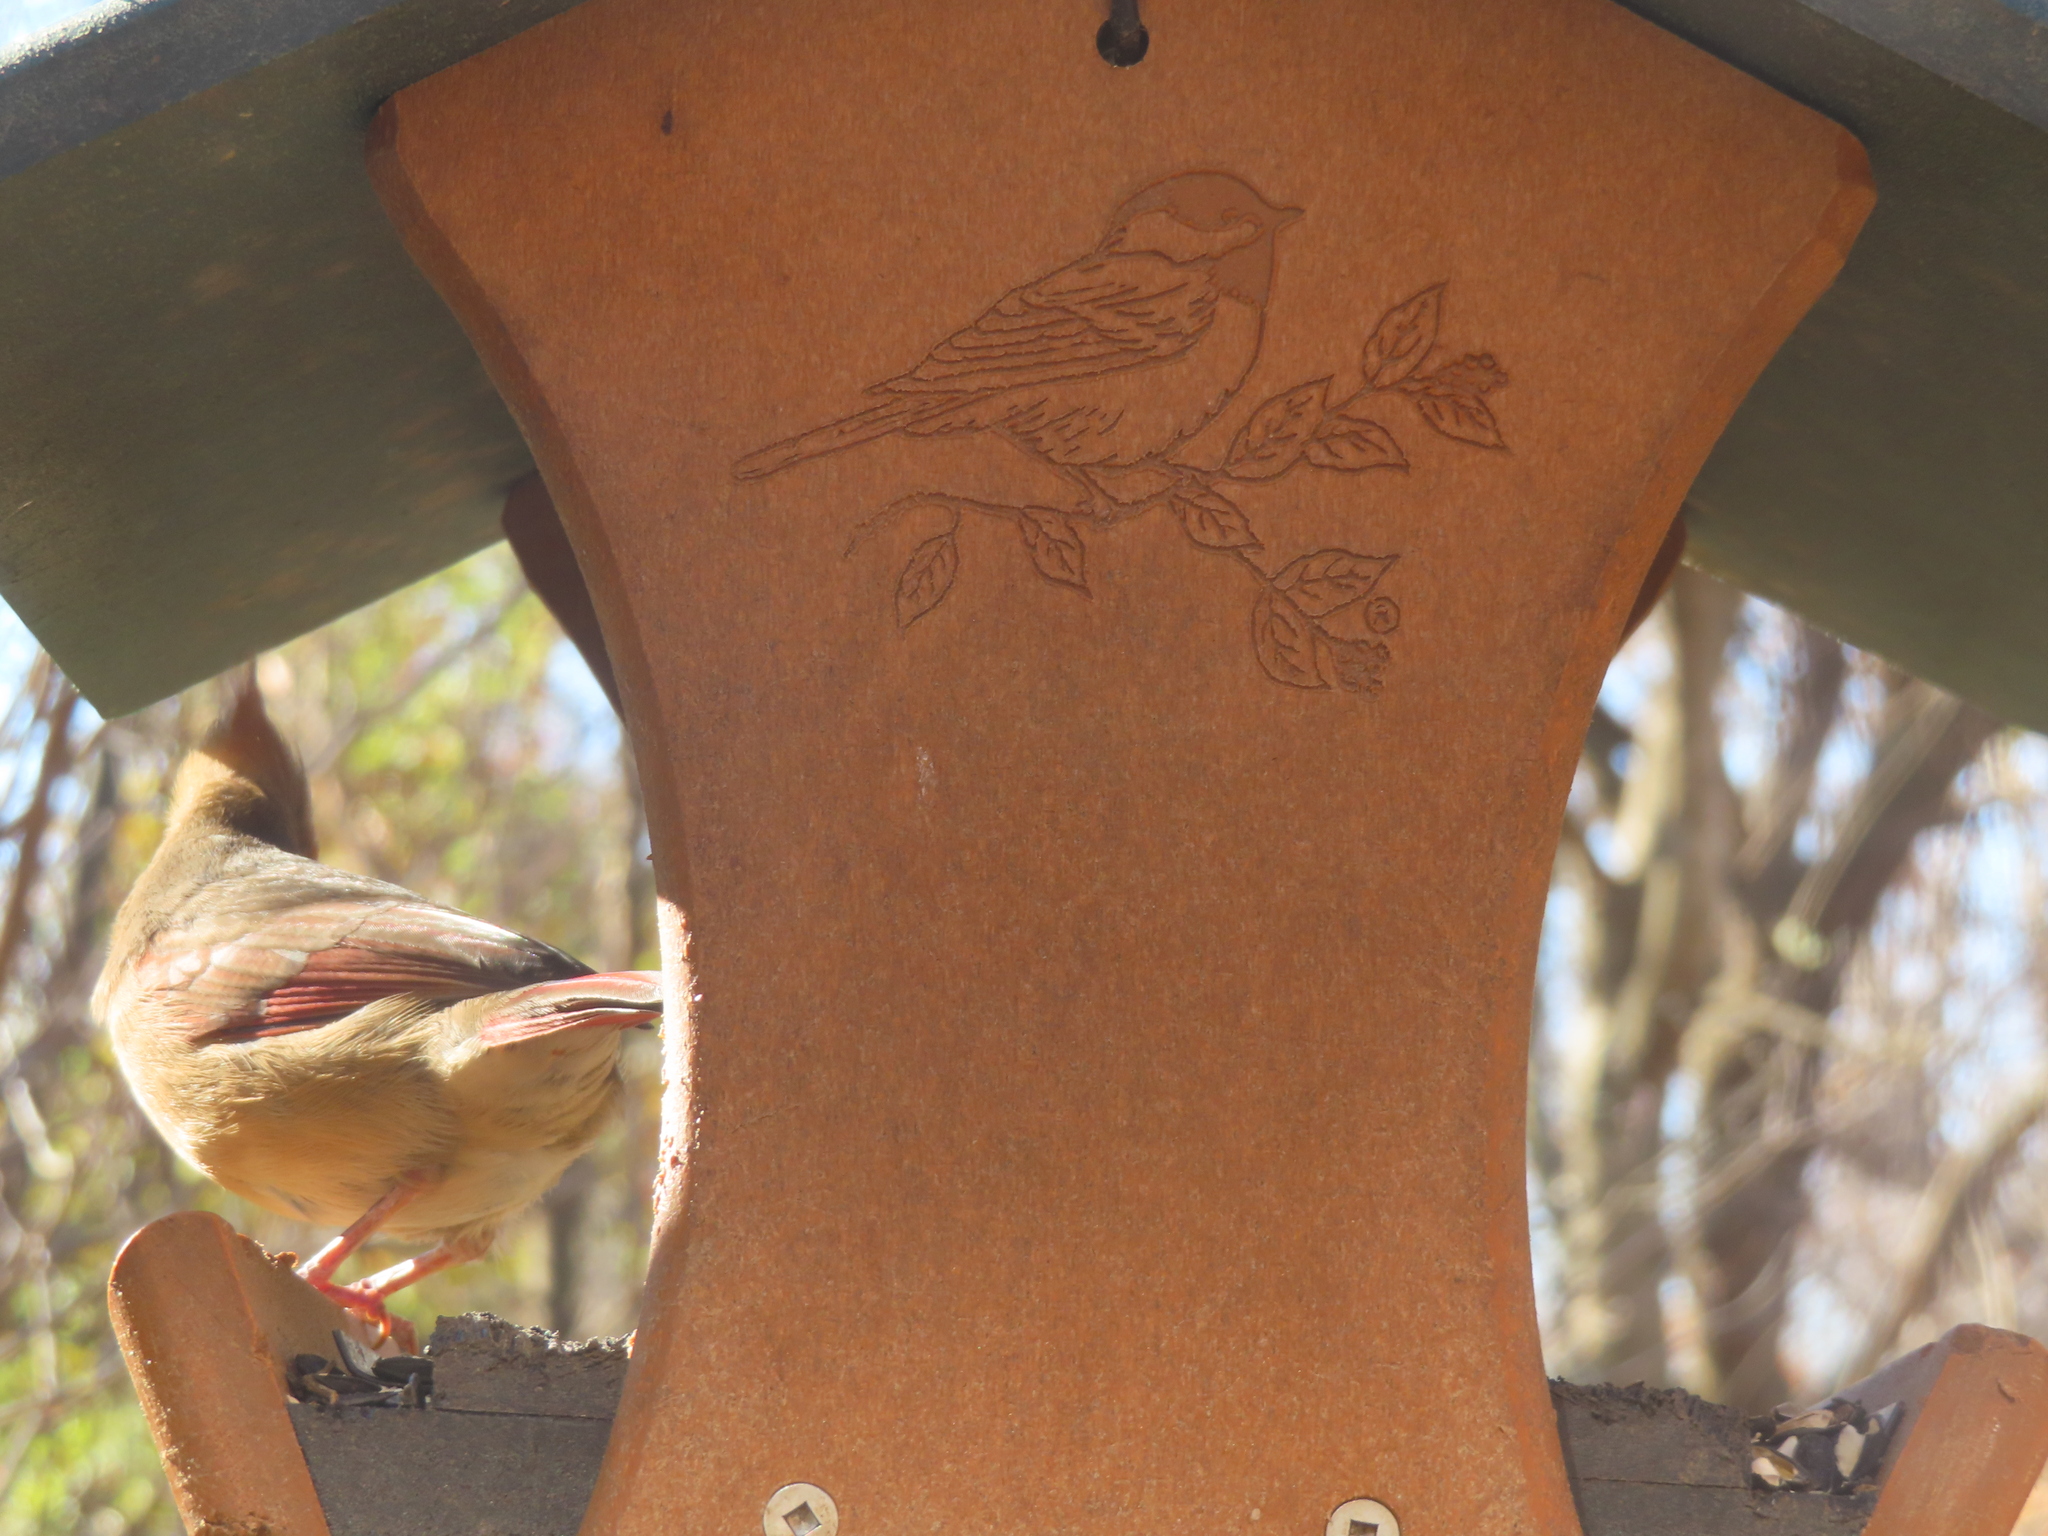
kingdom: Animalia
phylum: Chordata
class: Aves
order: Passeriformes
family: Cardinalidae
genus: Cardinalis
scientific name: Cardinalis cardinalis
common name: Northern cardinal
